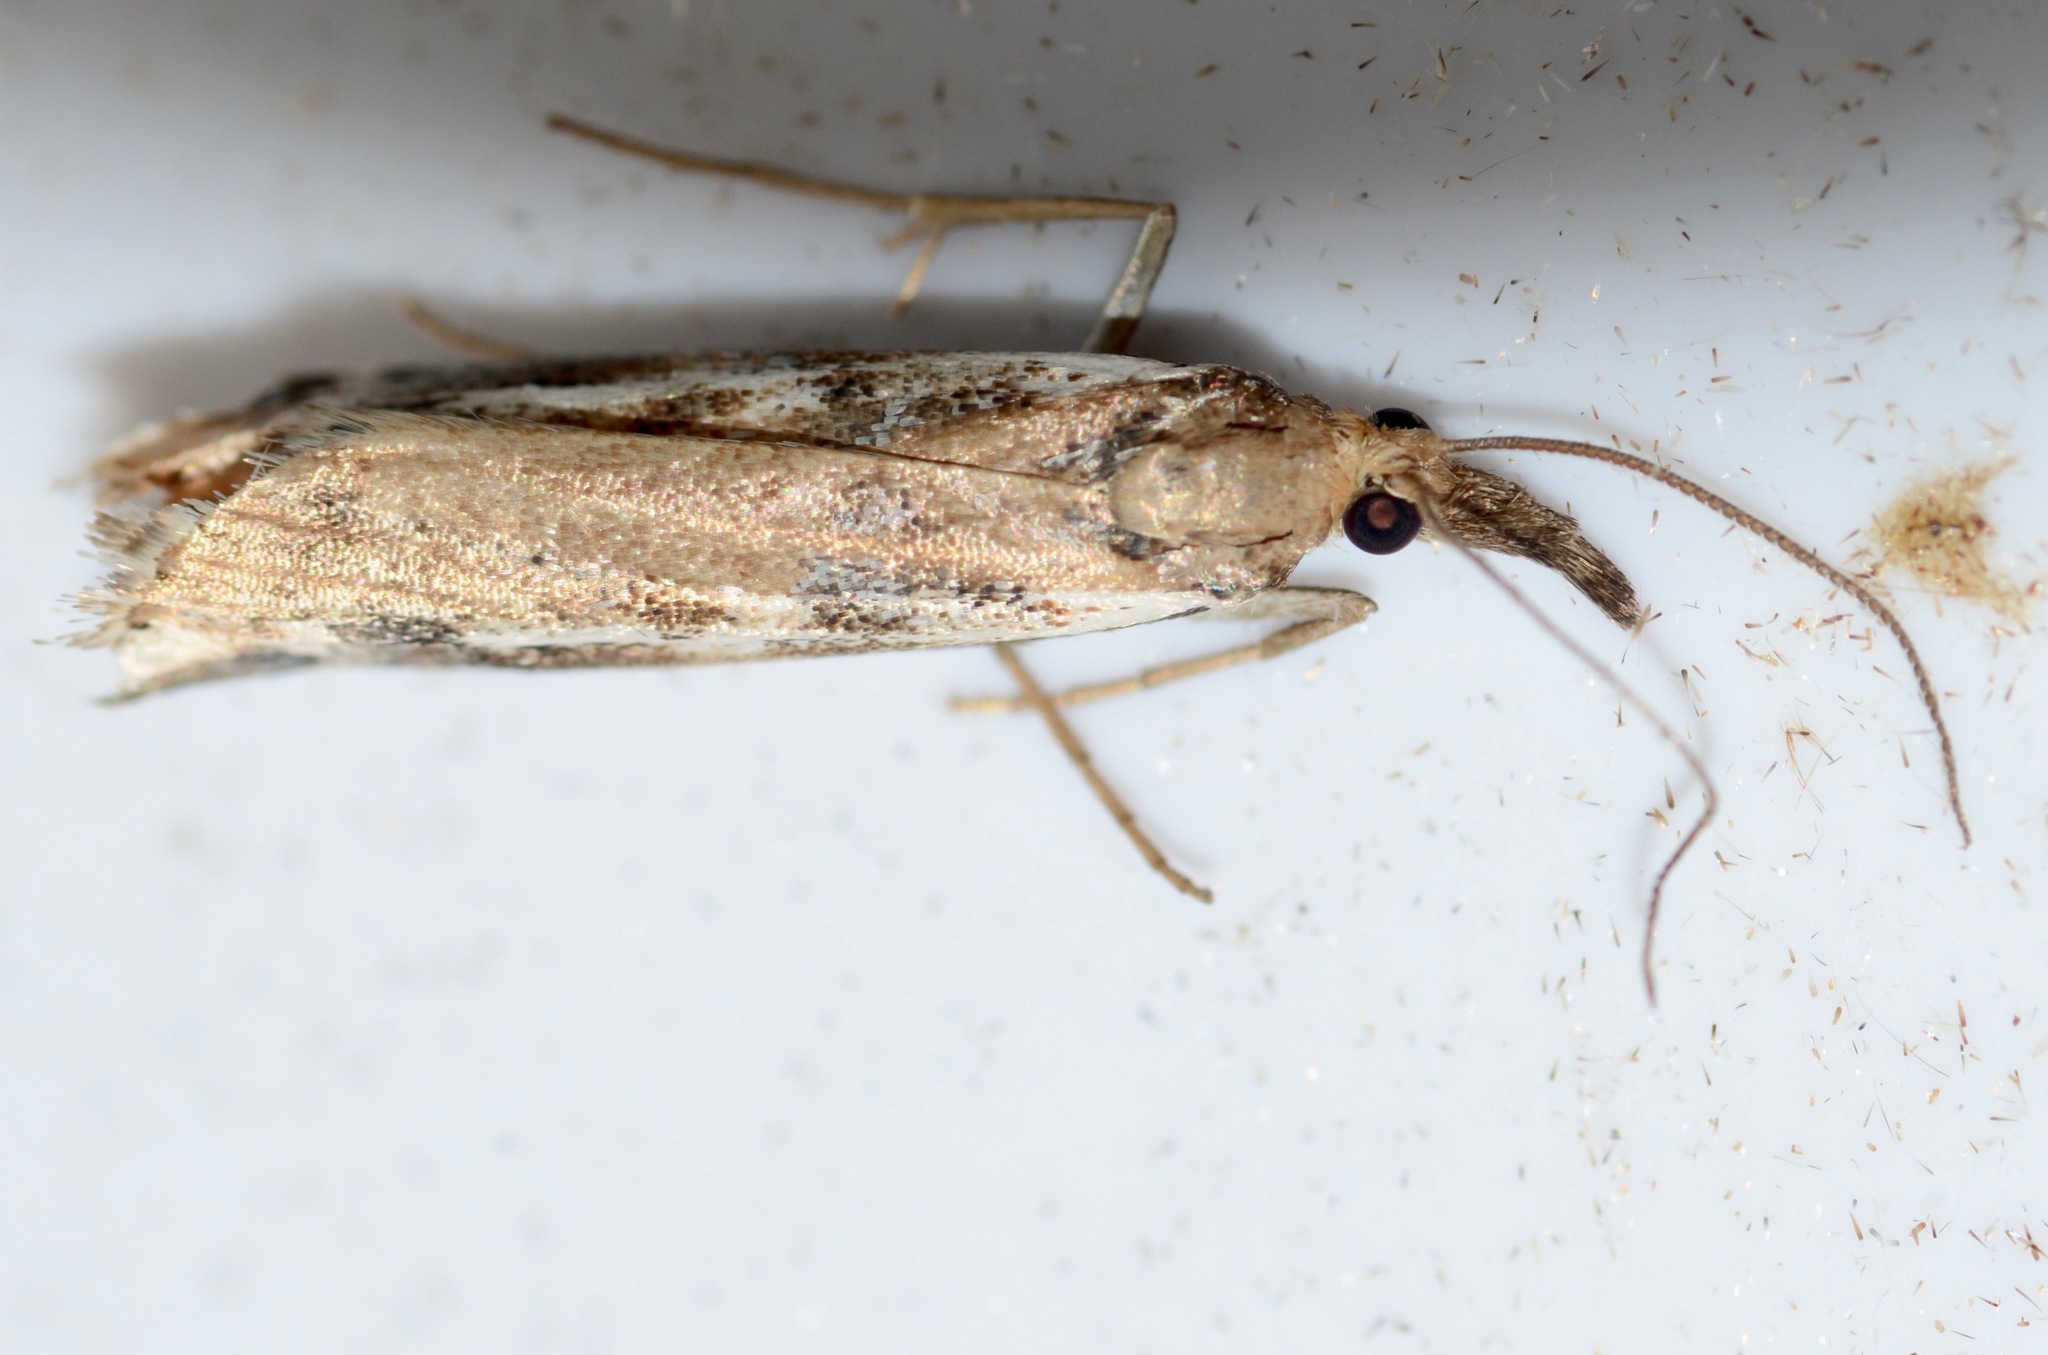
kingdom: Animalia
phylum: Arthropoda
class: Insecta
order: Lepidoptera
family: Crambidae
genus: Orocrambus
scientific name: Orocrambus vulgaris
